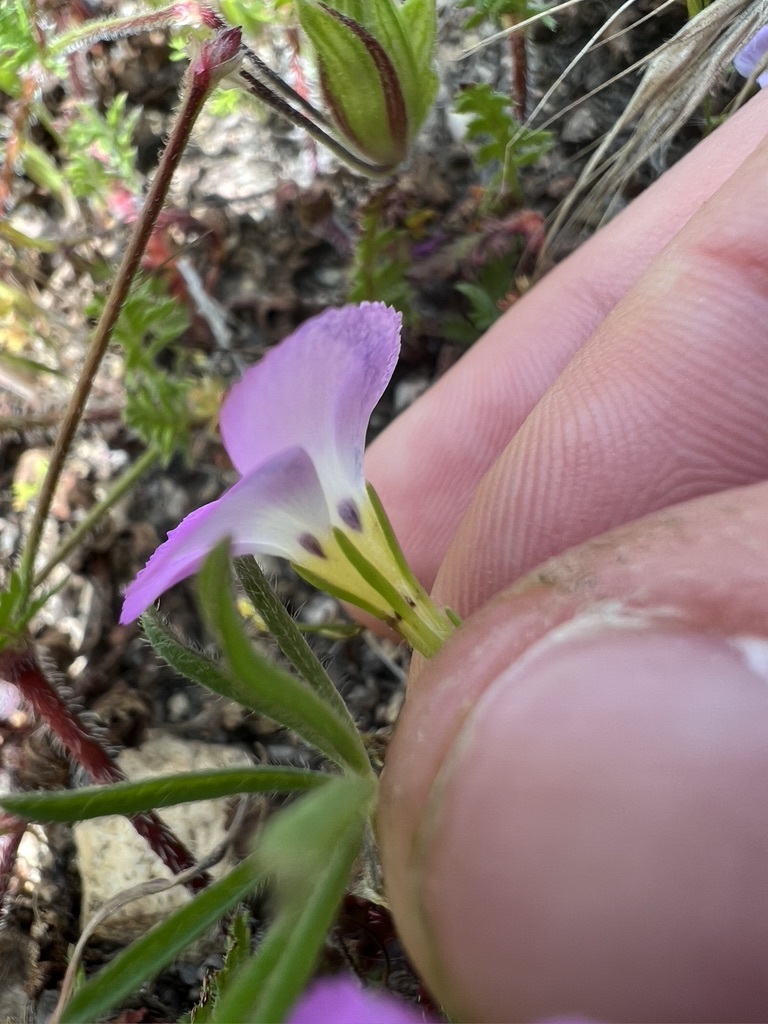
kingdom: Plantae
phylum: Tracheophyta
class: Magnoliopsida
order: Ericales
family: Polemoniaceae
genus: Linanthus
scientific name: Linanthus dianthiflorus
